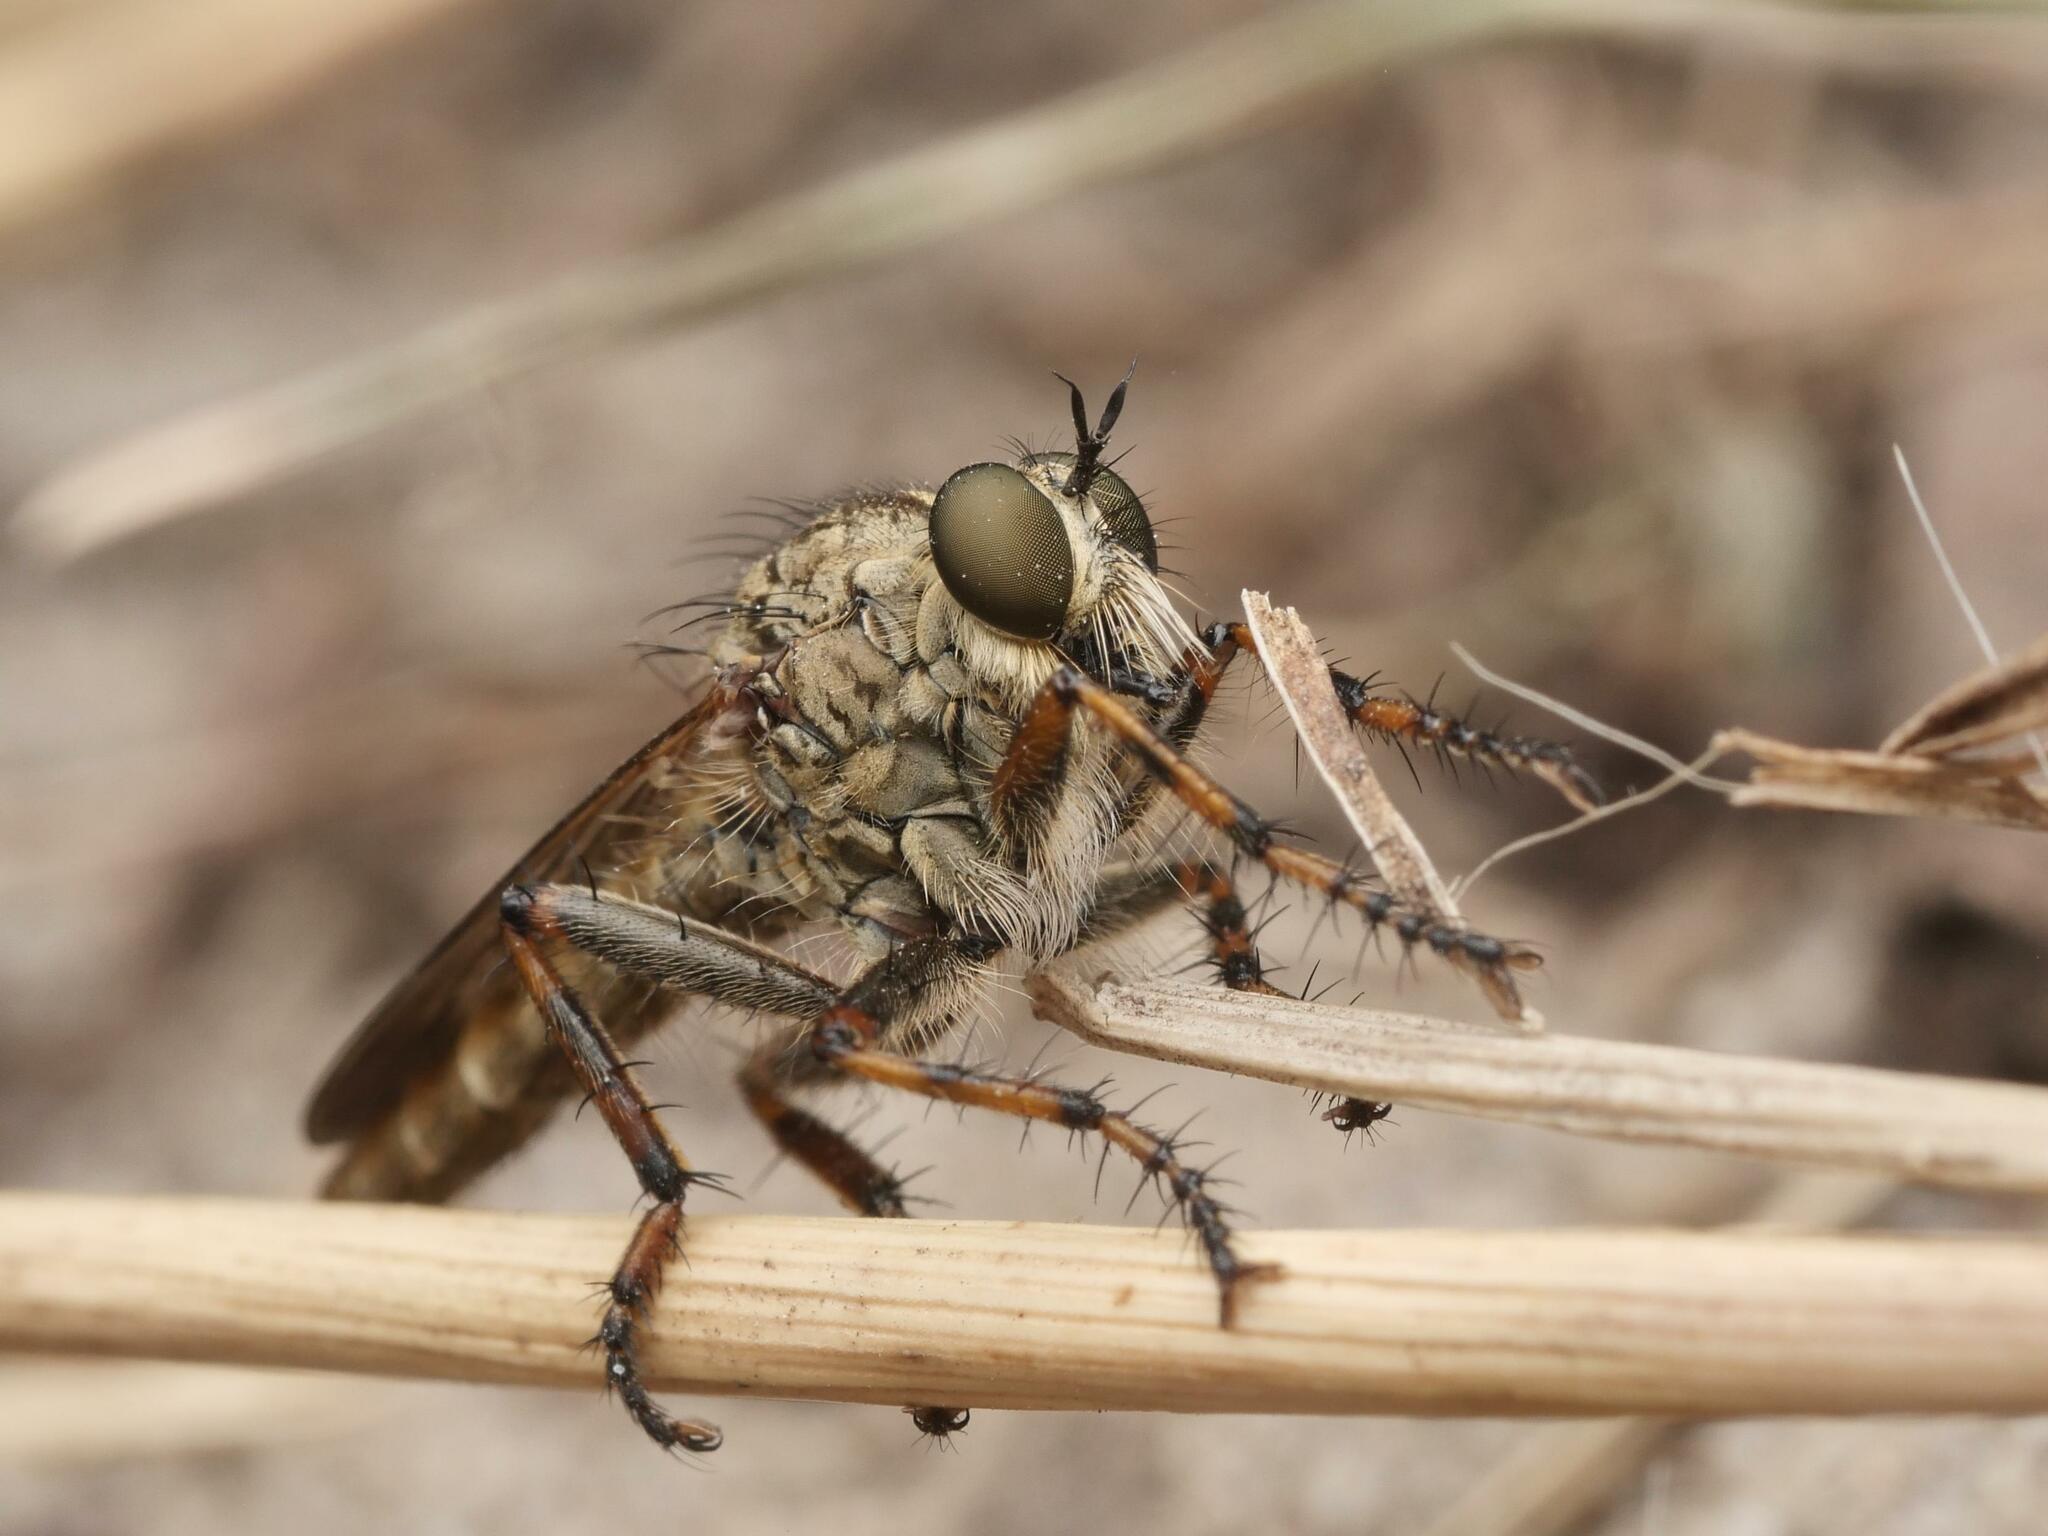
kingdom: Animalia
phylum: Arthropoda
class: Insecta
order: Diptera
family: Asilidae
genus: Epitriptus
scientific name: Epitriptus cingulatus
